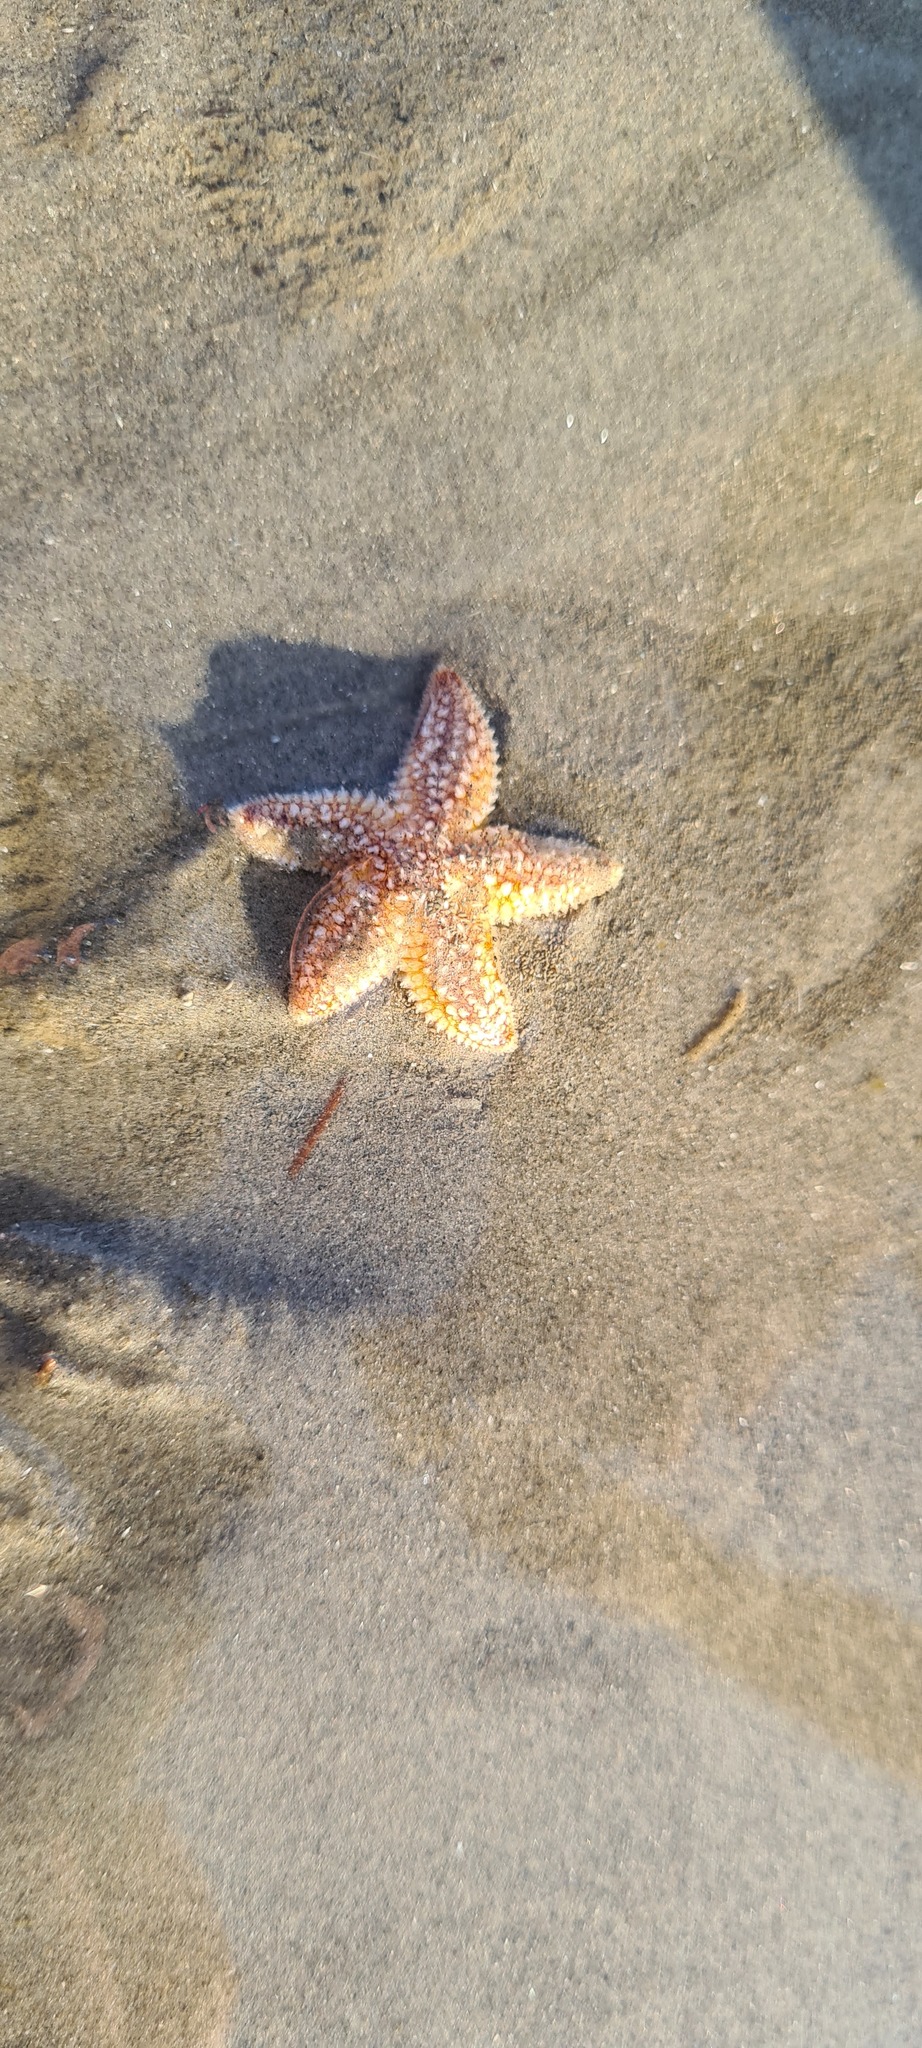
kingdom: Animalia
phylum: Echinodermata
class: Asteroidea
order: Forcipulatida
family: Asteriidae
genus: Asterias
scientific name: Asterias rubens
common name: Common starfish
